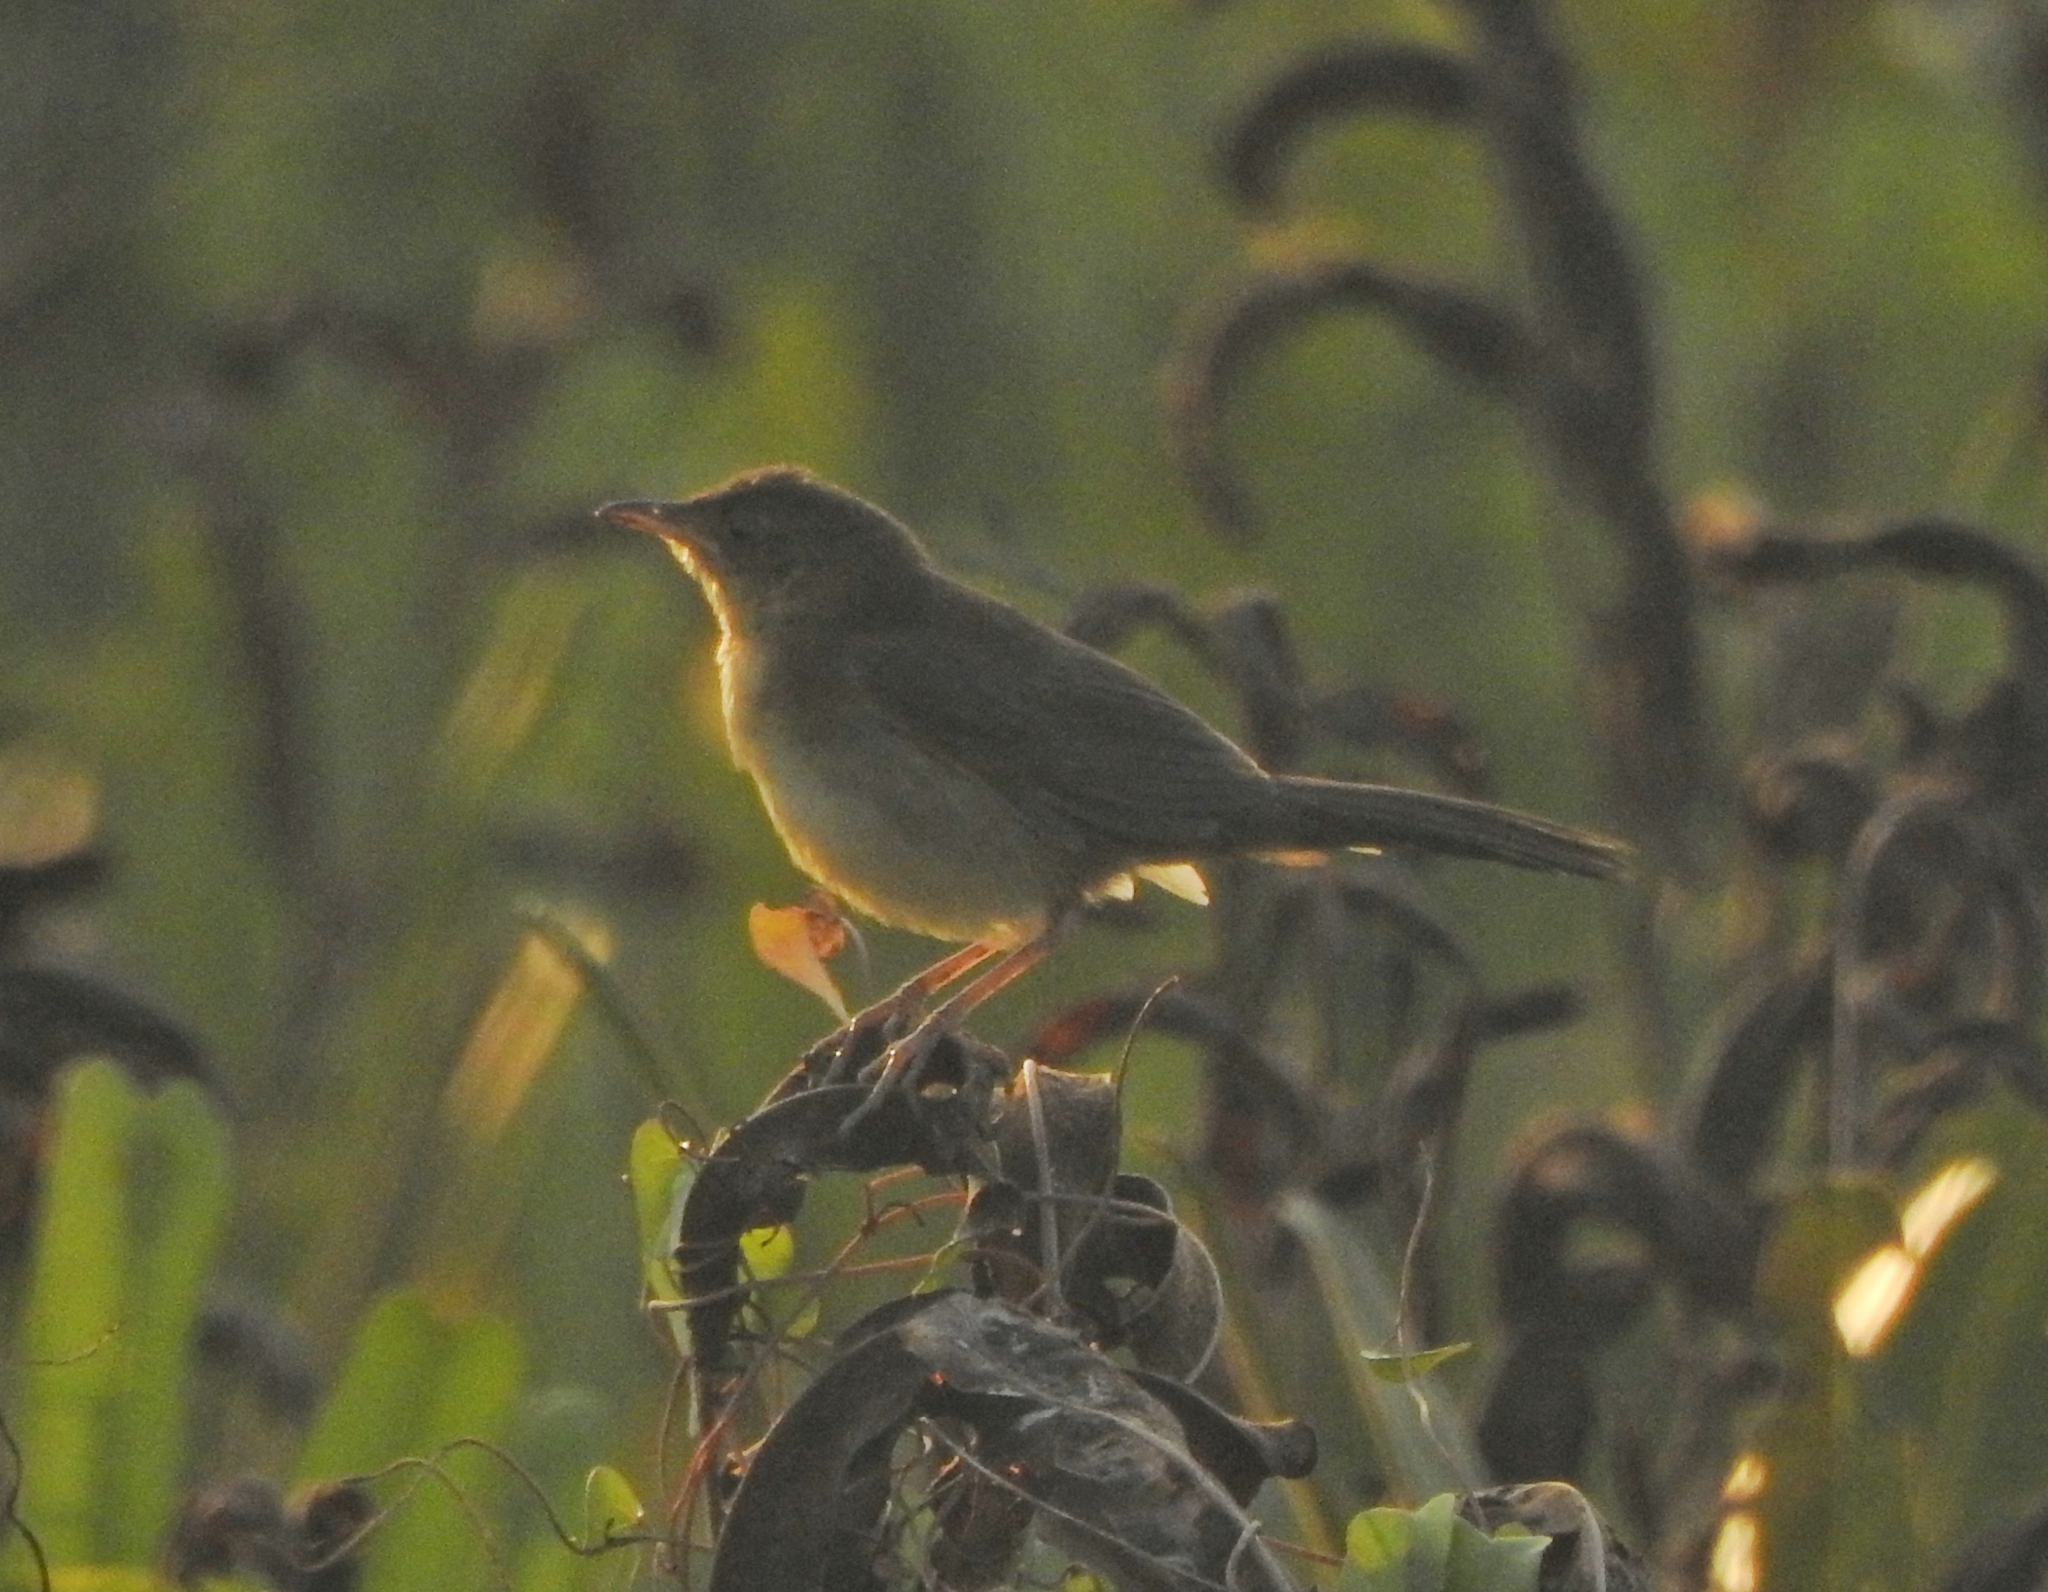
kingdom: Animalia
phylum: Chordata
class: Aves
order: Passeriformes
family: Locustellidae
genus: Schoenicola
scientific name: Schoenicola platyurus
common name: Broad-tailed grassbird
